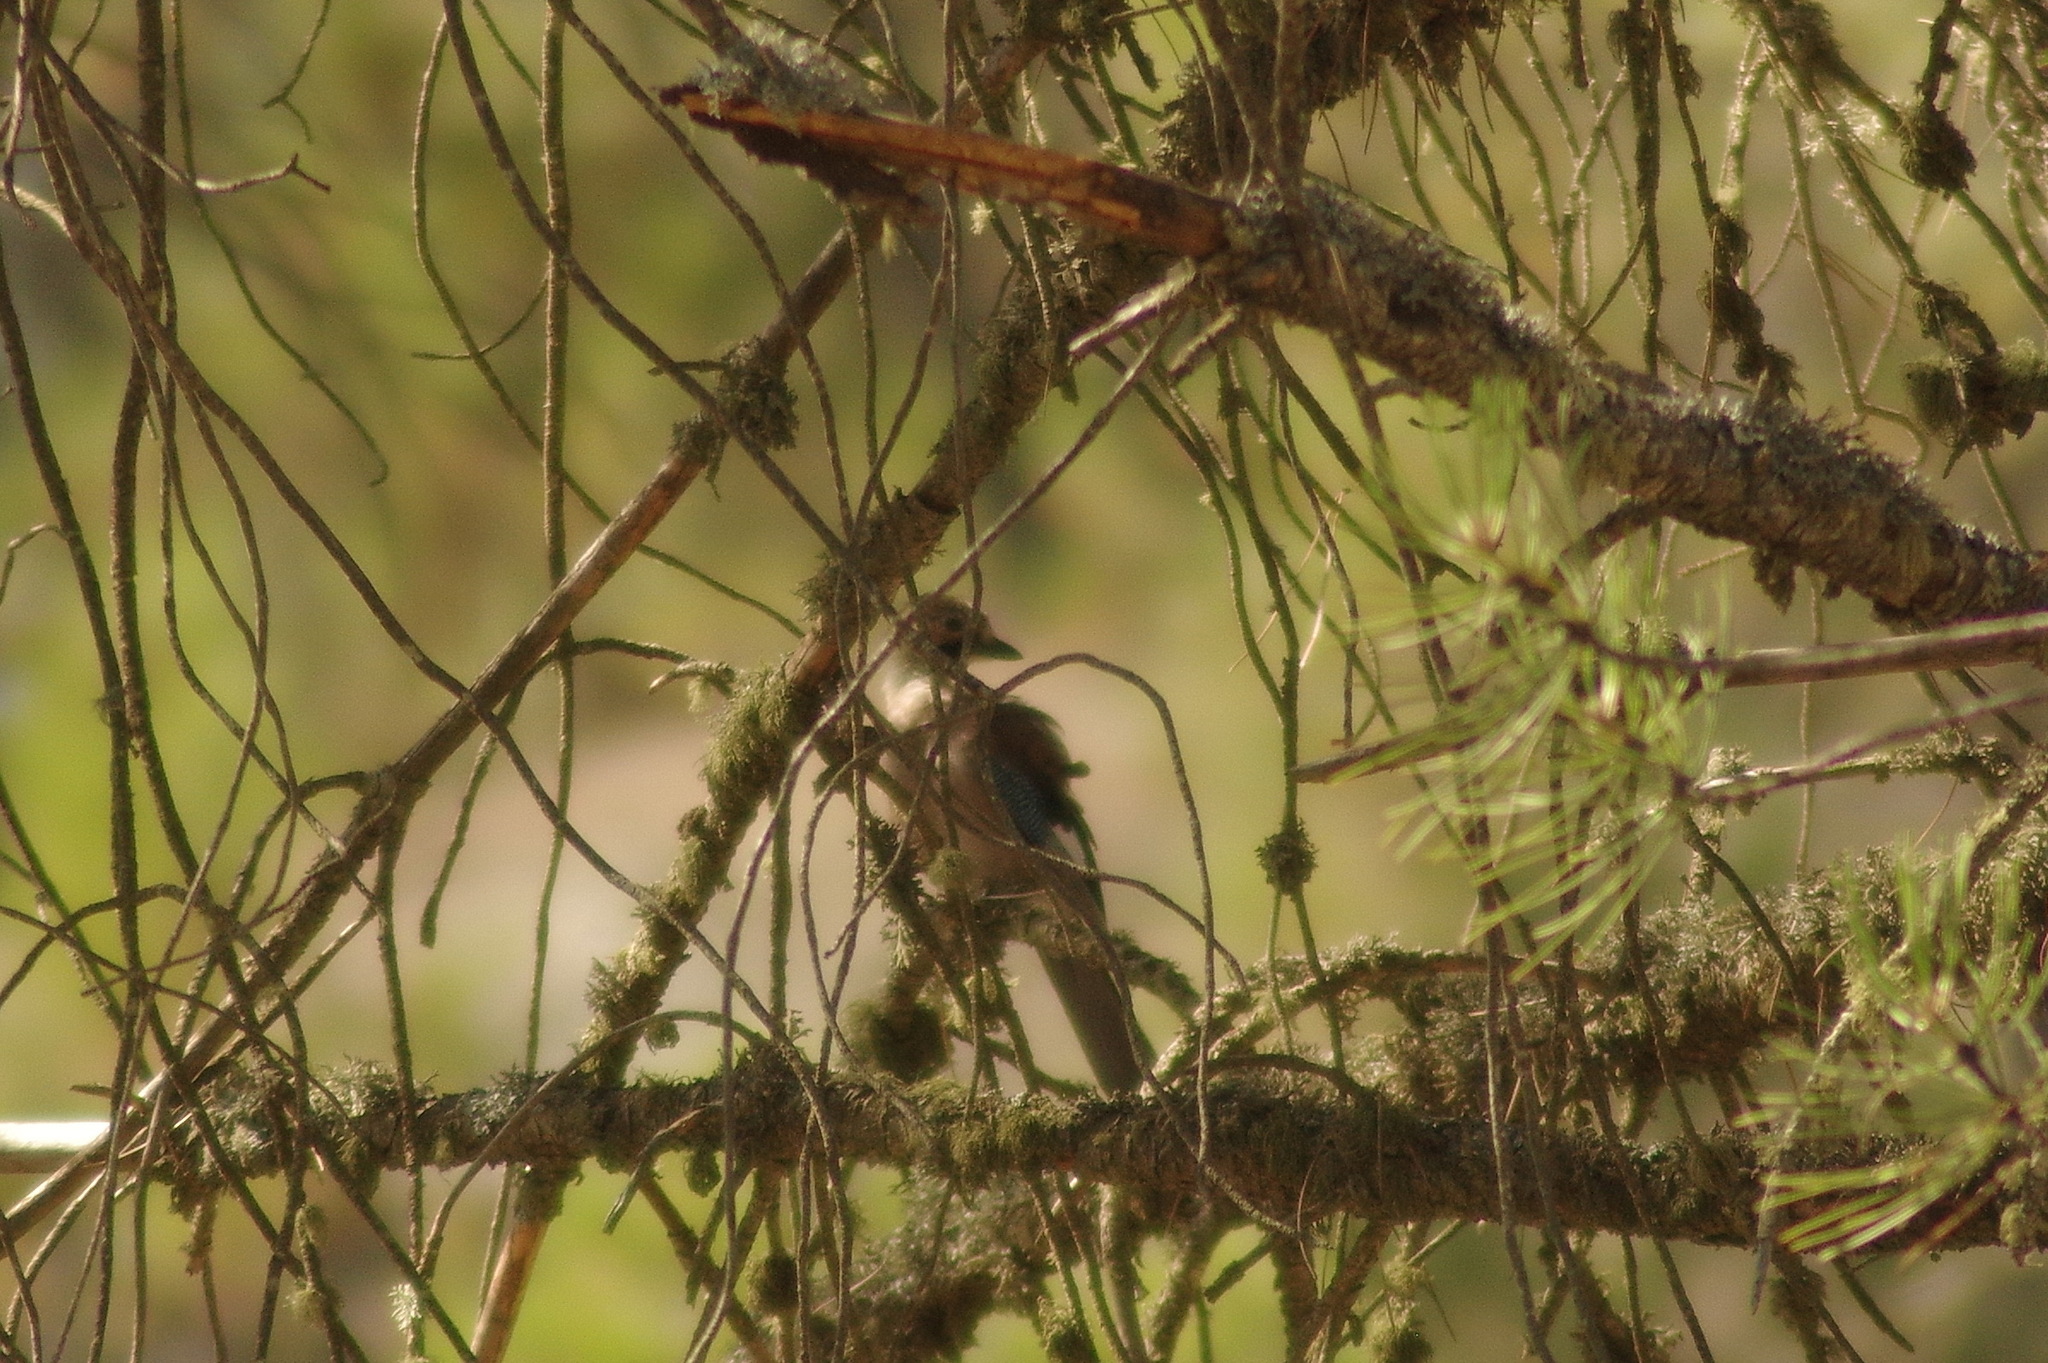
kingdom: Animalia
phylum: Chordata
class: Aves
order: Passeriformes
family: Corvidae
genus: Garrulus
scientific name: Garrulus glandarius
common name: Eurasian jay
